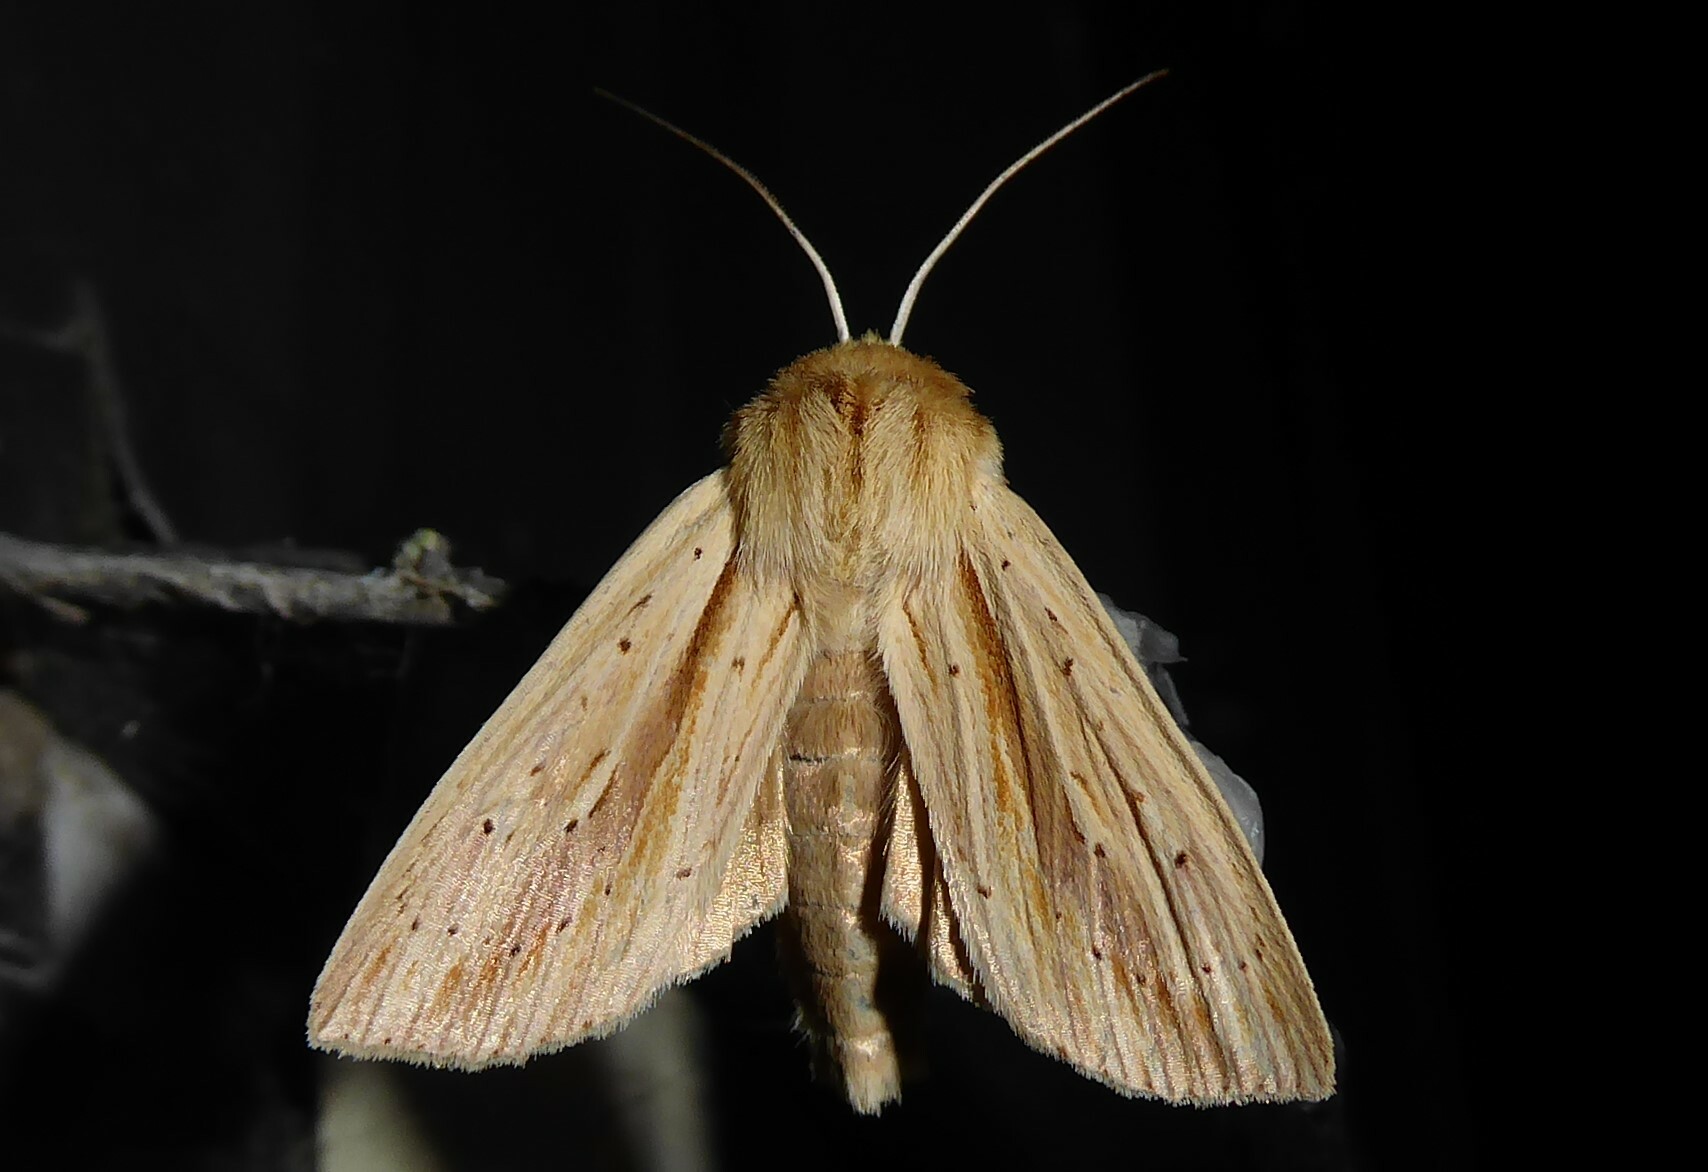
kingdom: Animalia
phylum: Arthropoda
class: Insecta
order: Lepidoptera
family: Noctuidae
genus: Ichneutica
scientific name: Ichneutica semivittata
